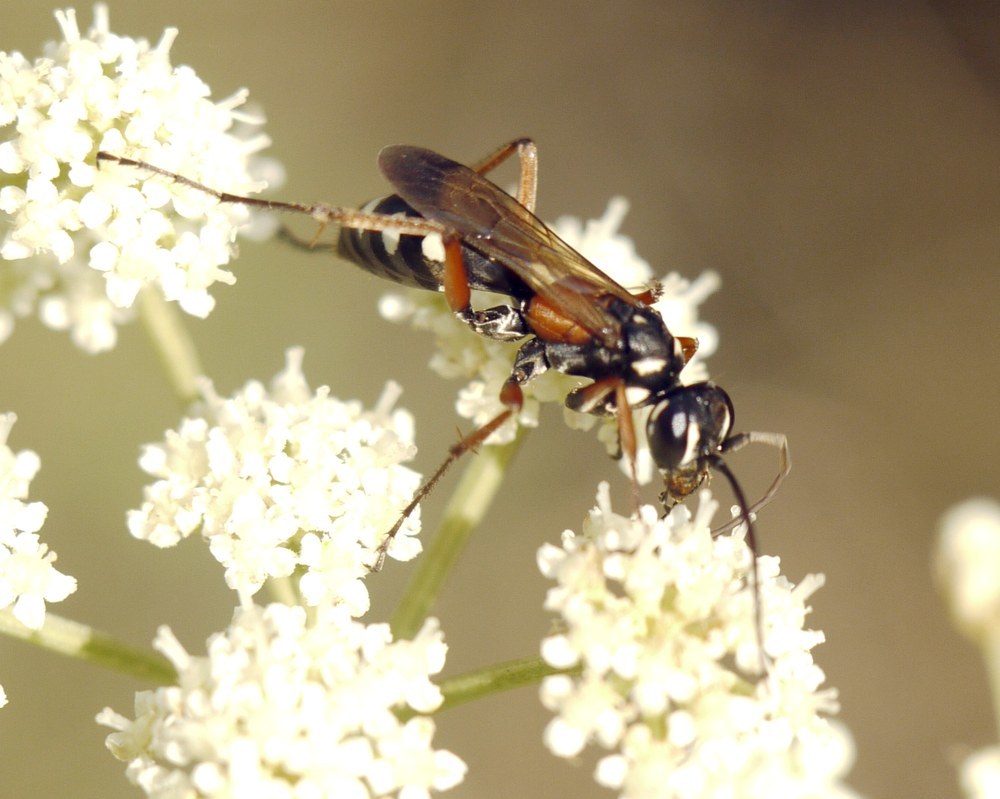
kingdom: Animalia
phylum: Arthropoda
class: Insecta
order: Hymenoptera
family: Pompilidae
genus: Cryptocheilus
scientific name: Cryptocheilus fabricii
